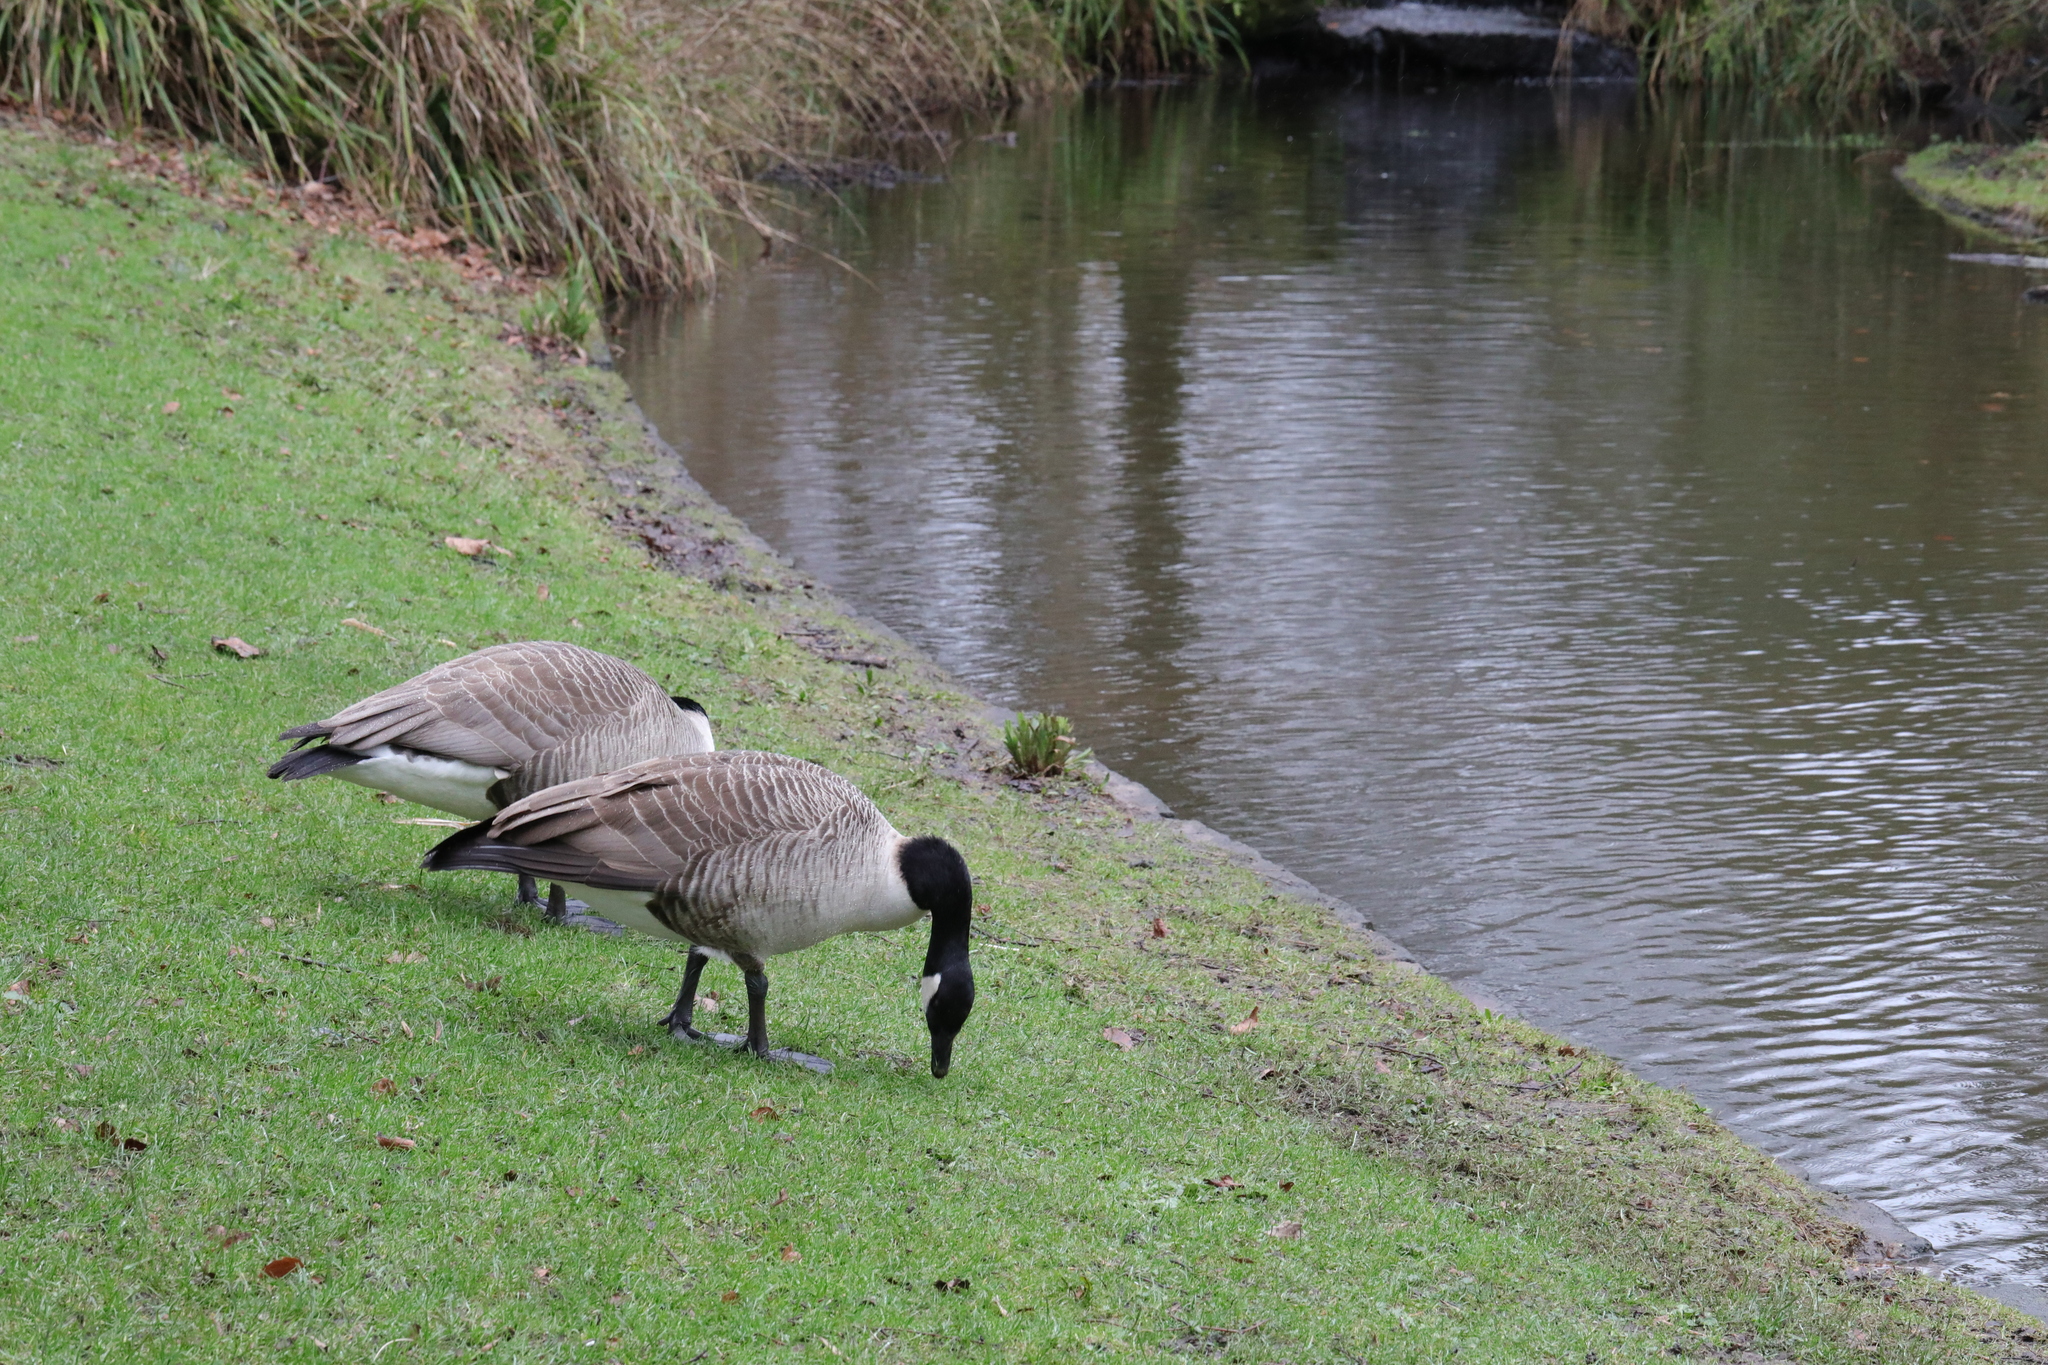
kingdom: Animalia
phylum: Chordata
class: Aves
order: Anseriformes
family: Anatidae
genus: Branta
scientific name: Branta canadensis
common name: Canada goose
